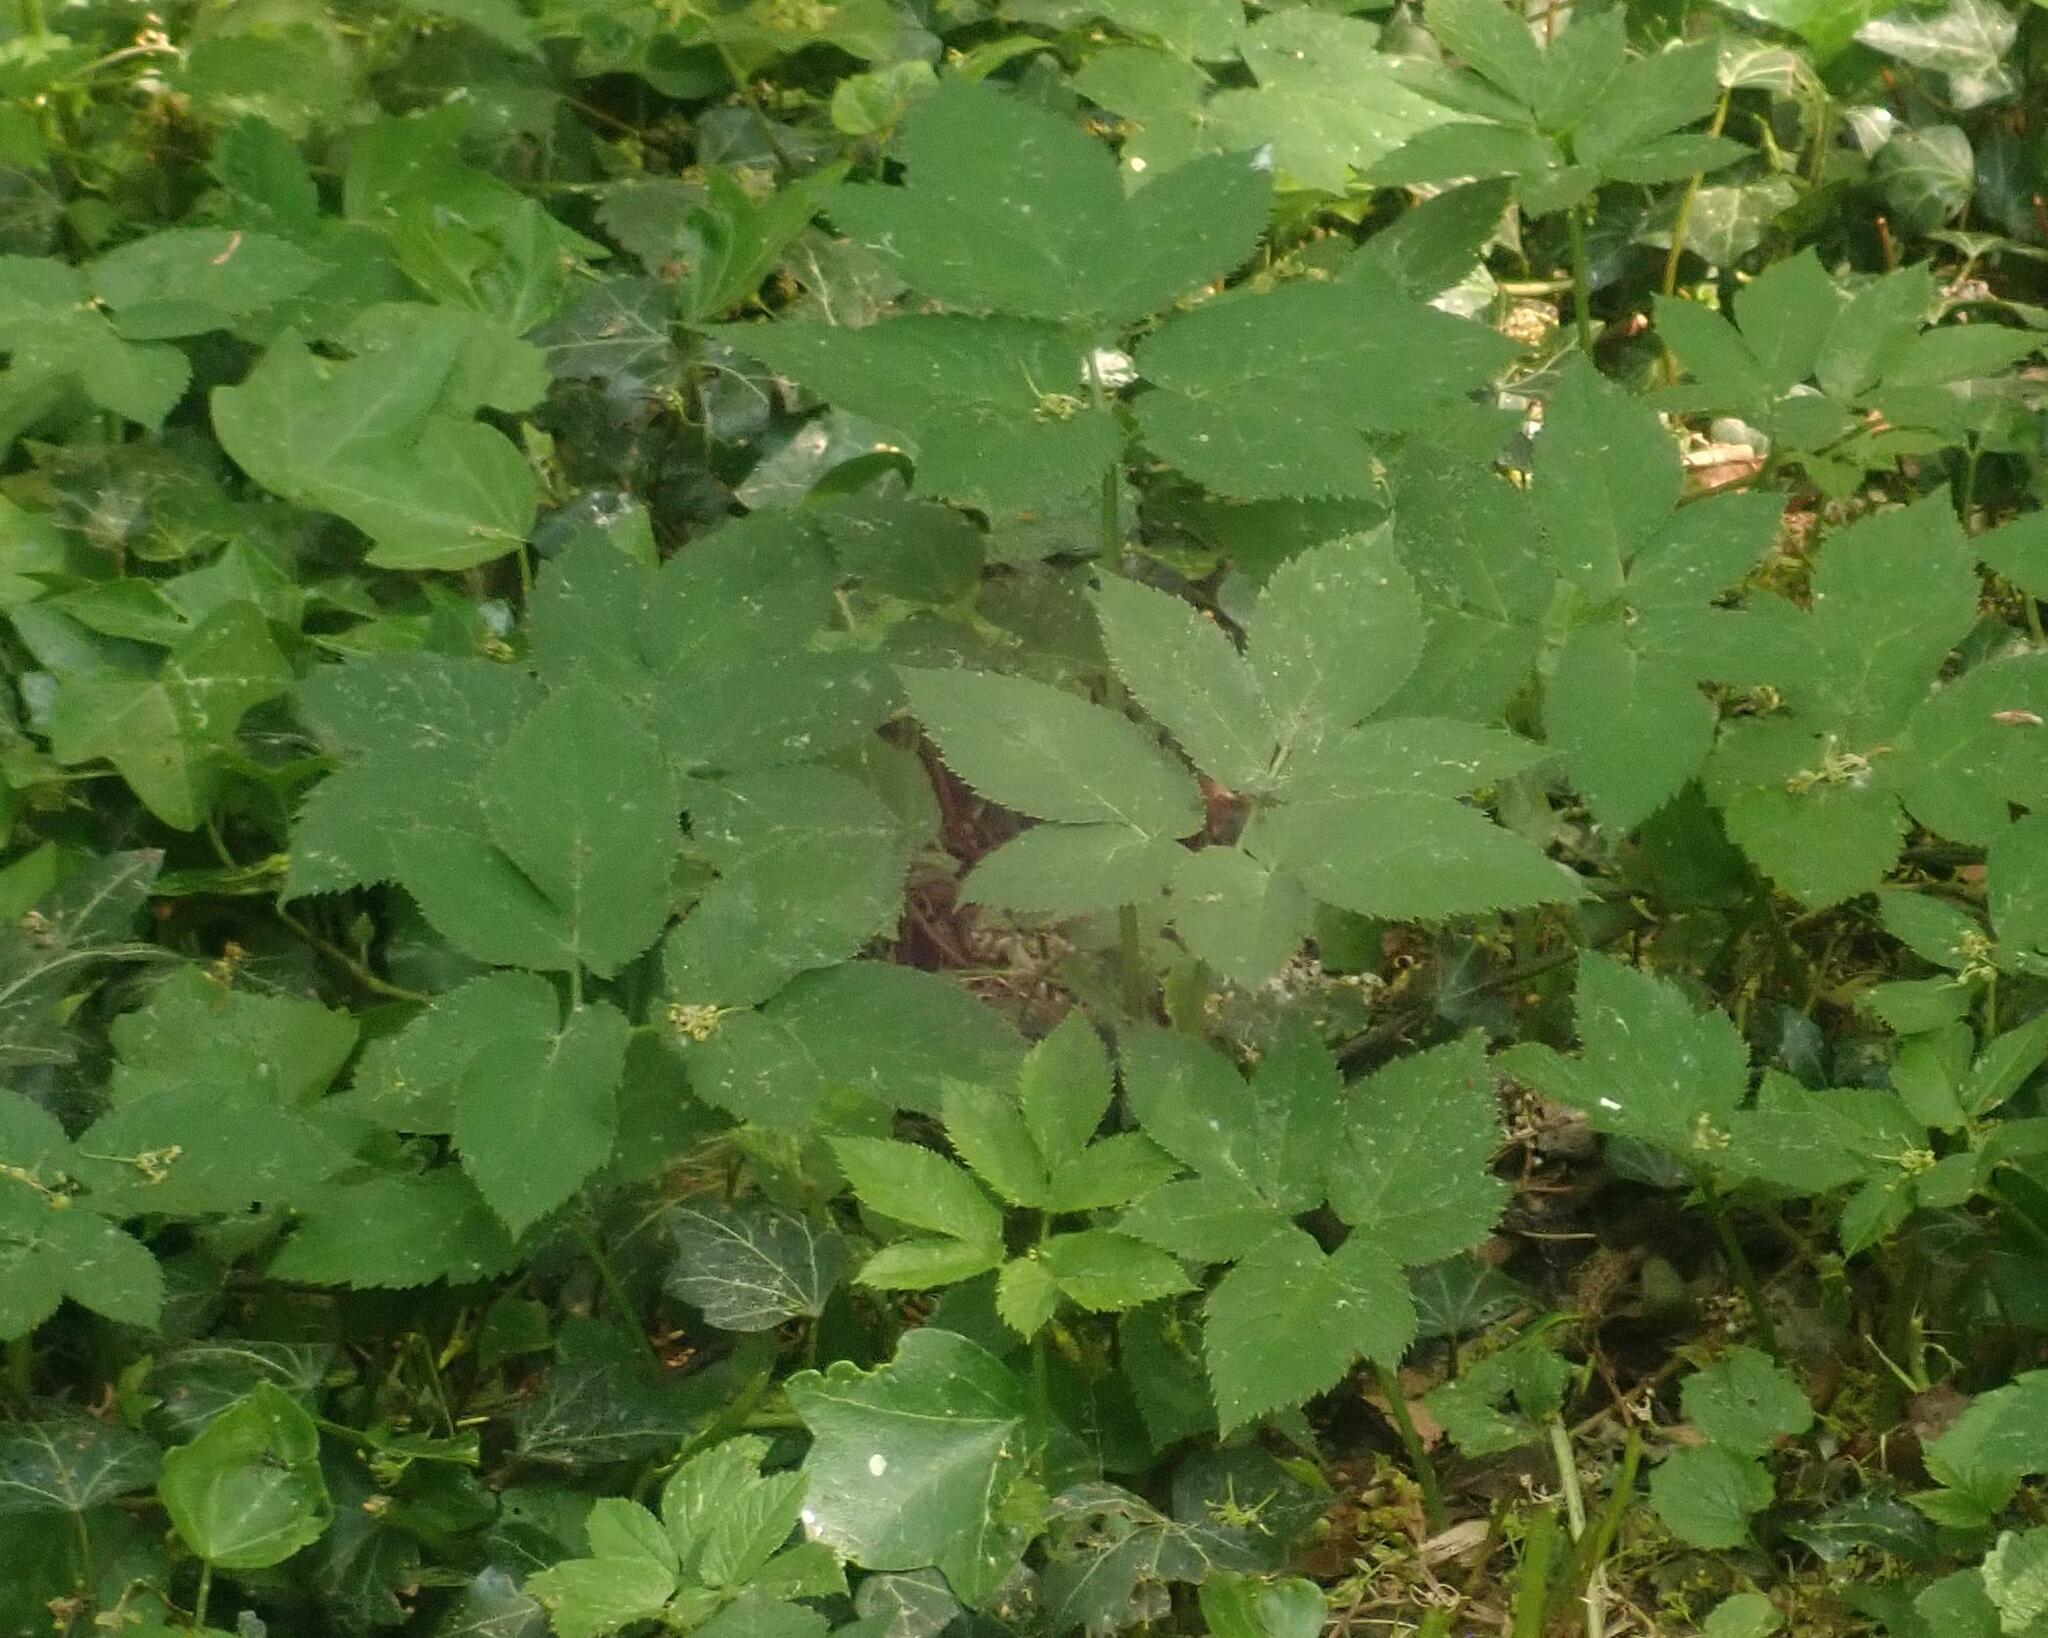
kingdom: Plantae
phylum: Tracheophyta
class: Magnoliopsida
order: Apiales
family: Apiaceae
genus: Aegopodium
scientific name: Aegopodium podagraria
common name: Ground-elder
